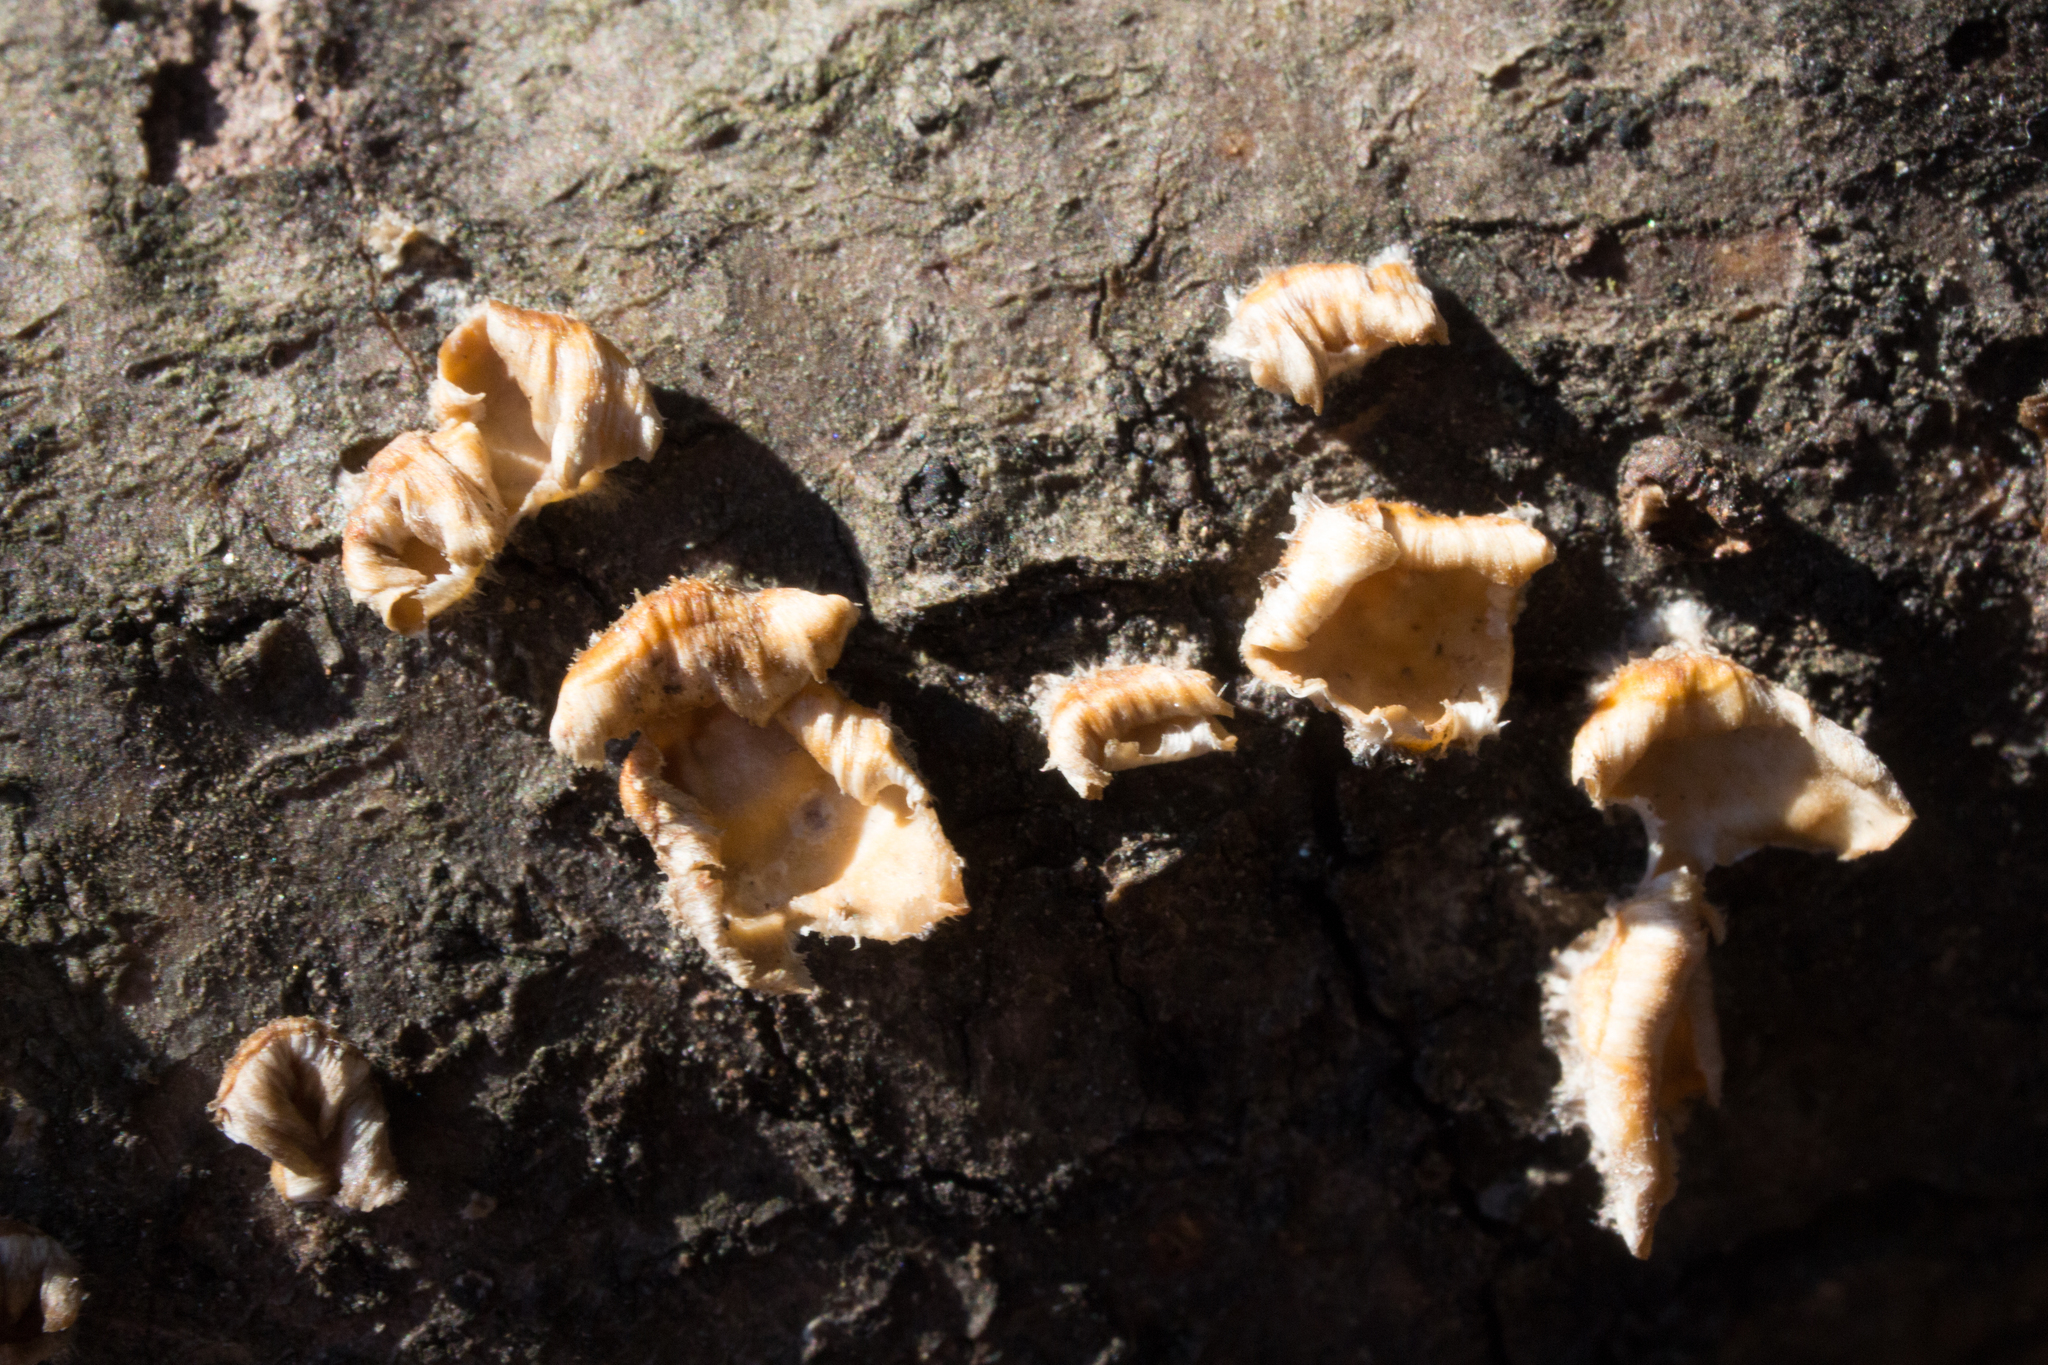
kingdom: Fungi
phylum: Basidiomycota
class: Agaricomycetes
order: Russulales
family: Stereaceae
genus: Stereum
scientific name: Stereum complicatum
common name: Crowded parchment
